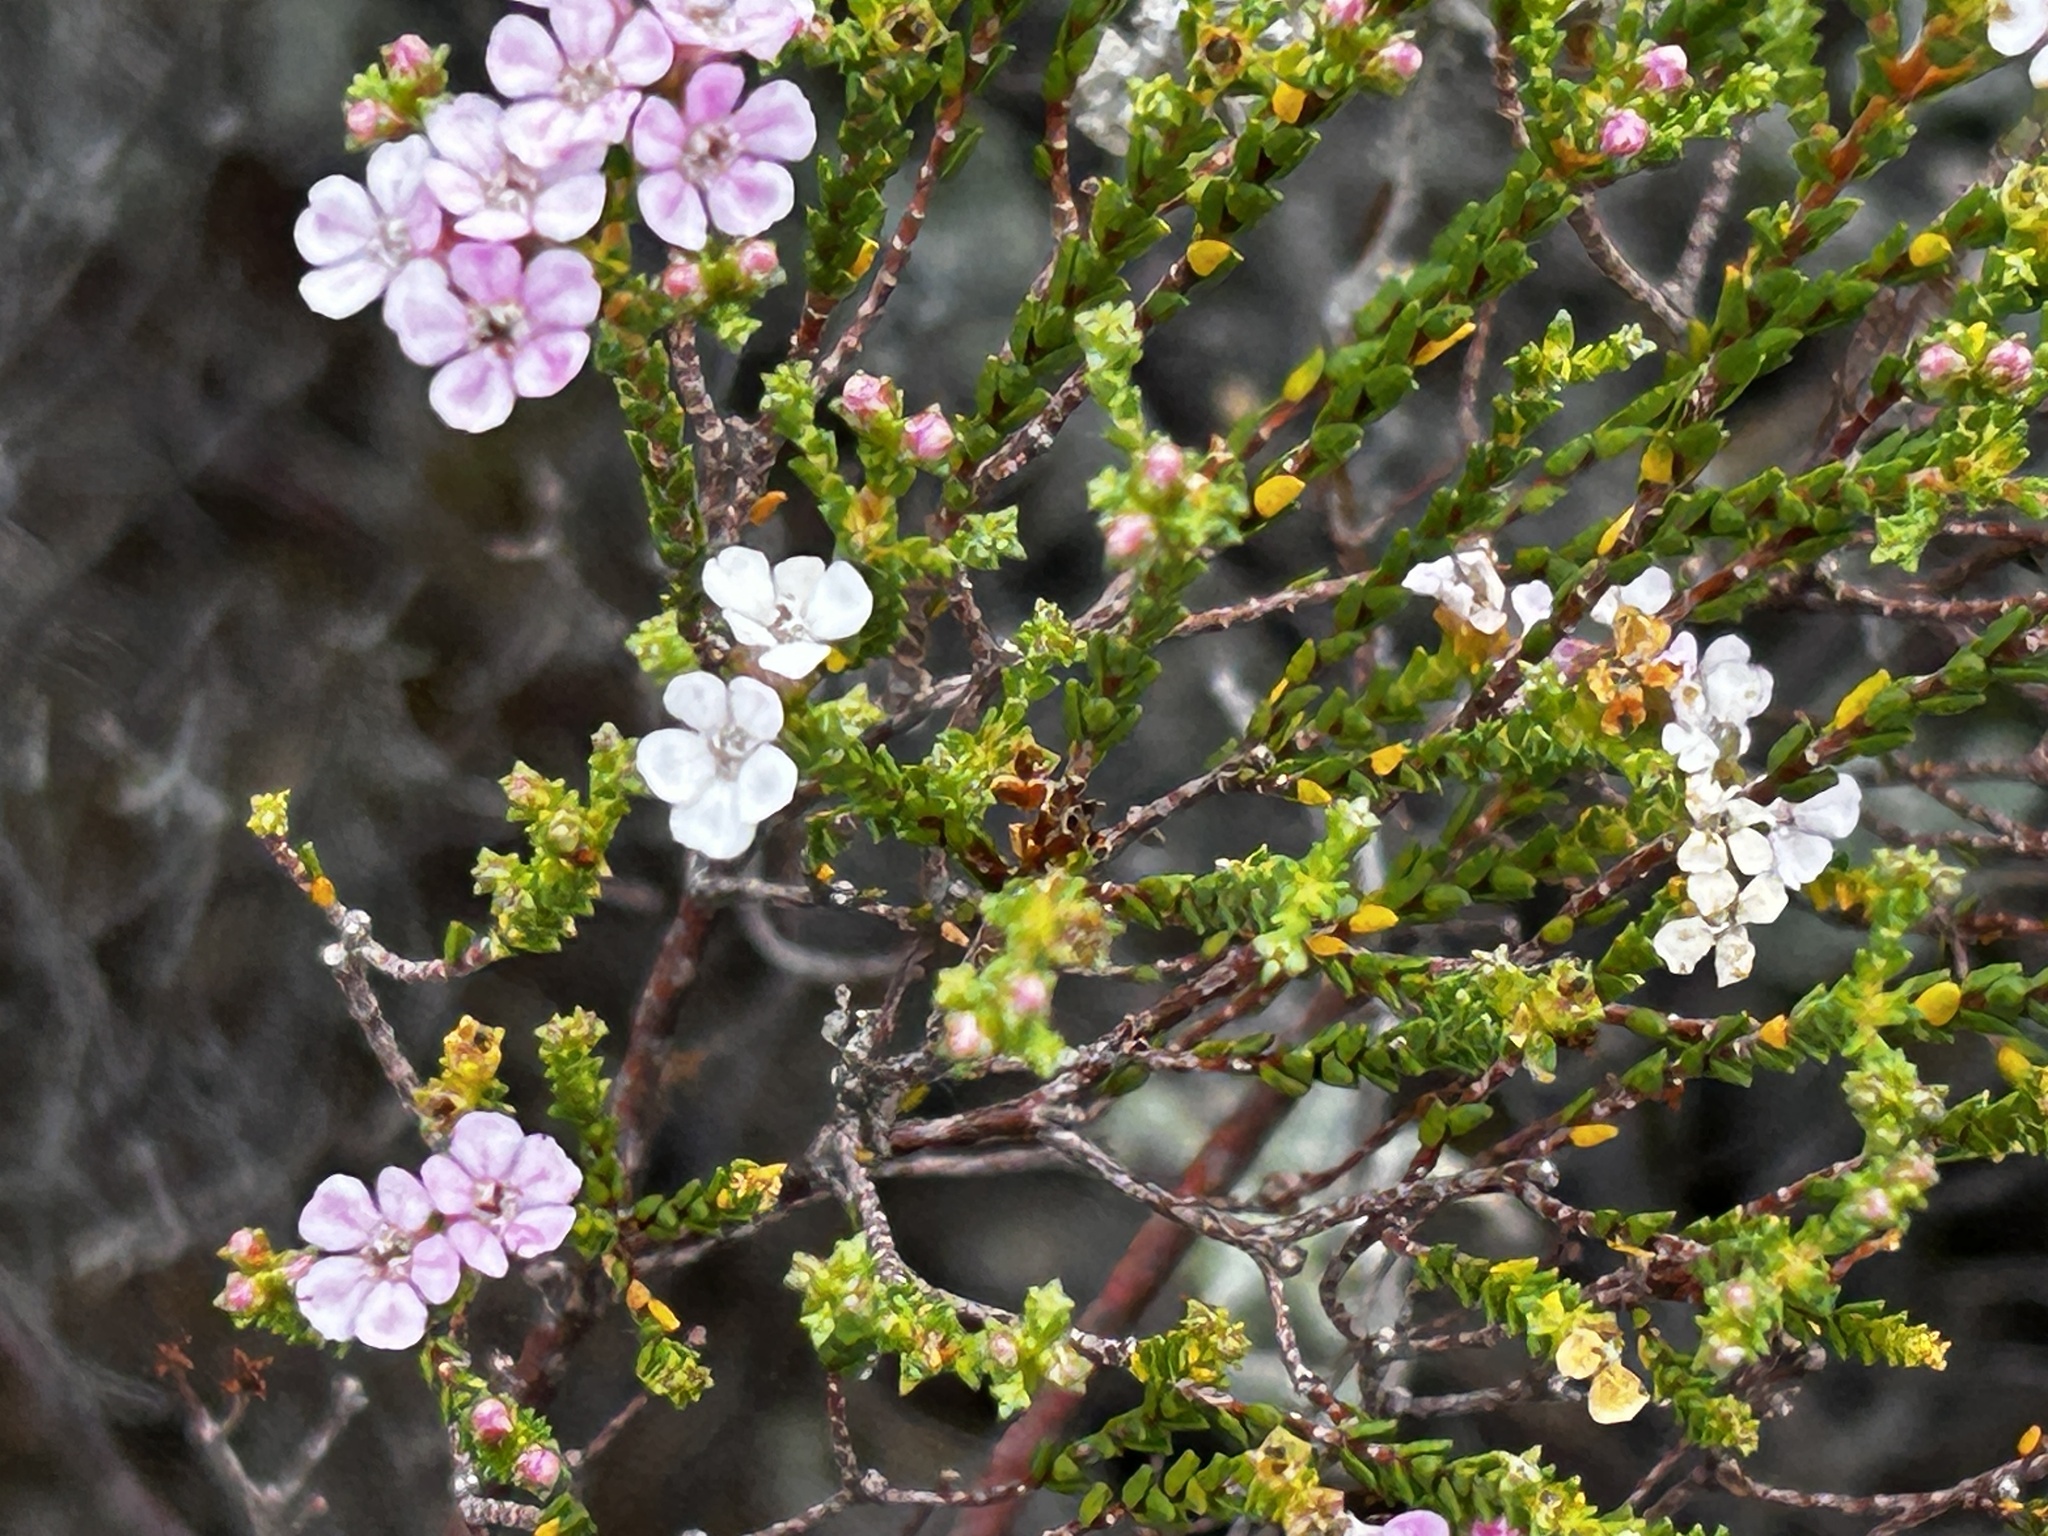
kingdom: Plantae
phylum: Tracheophyta
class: Magnoliopsida
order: Sapindales
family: Rutaceae
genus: Euchaetis
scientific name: Euchaetis albertiniana
